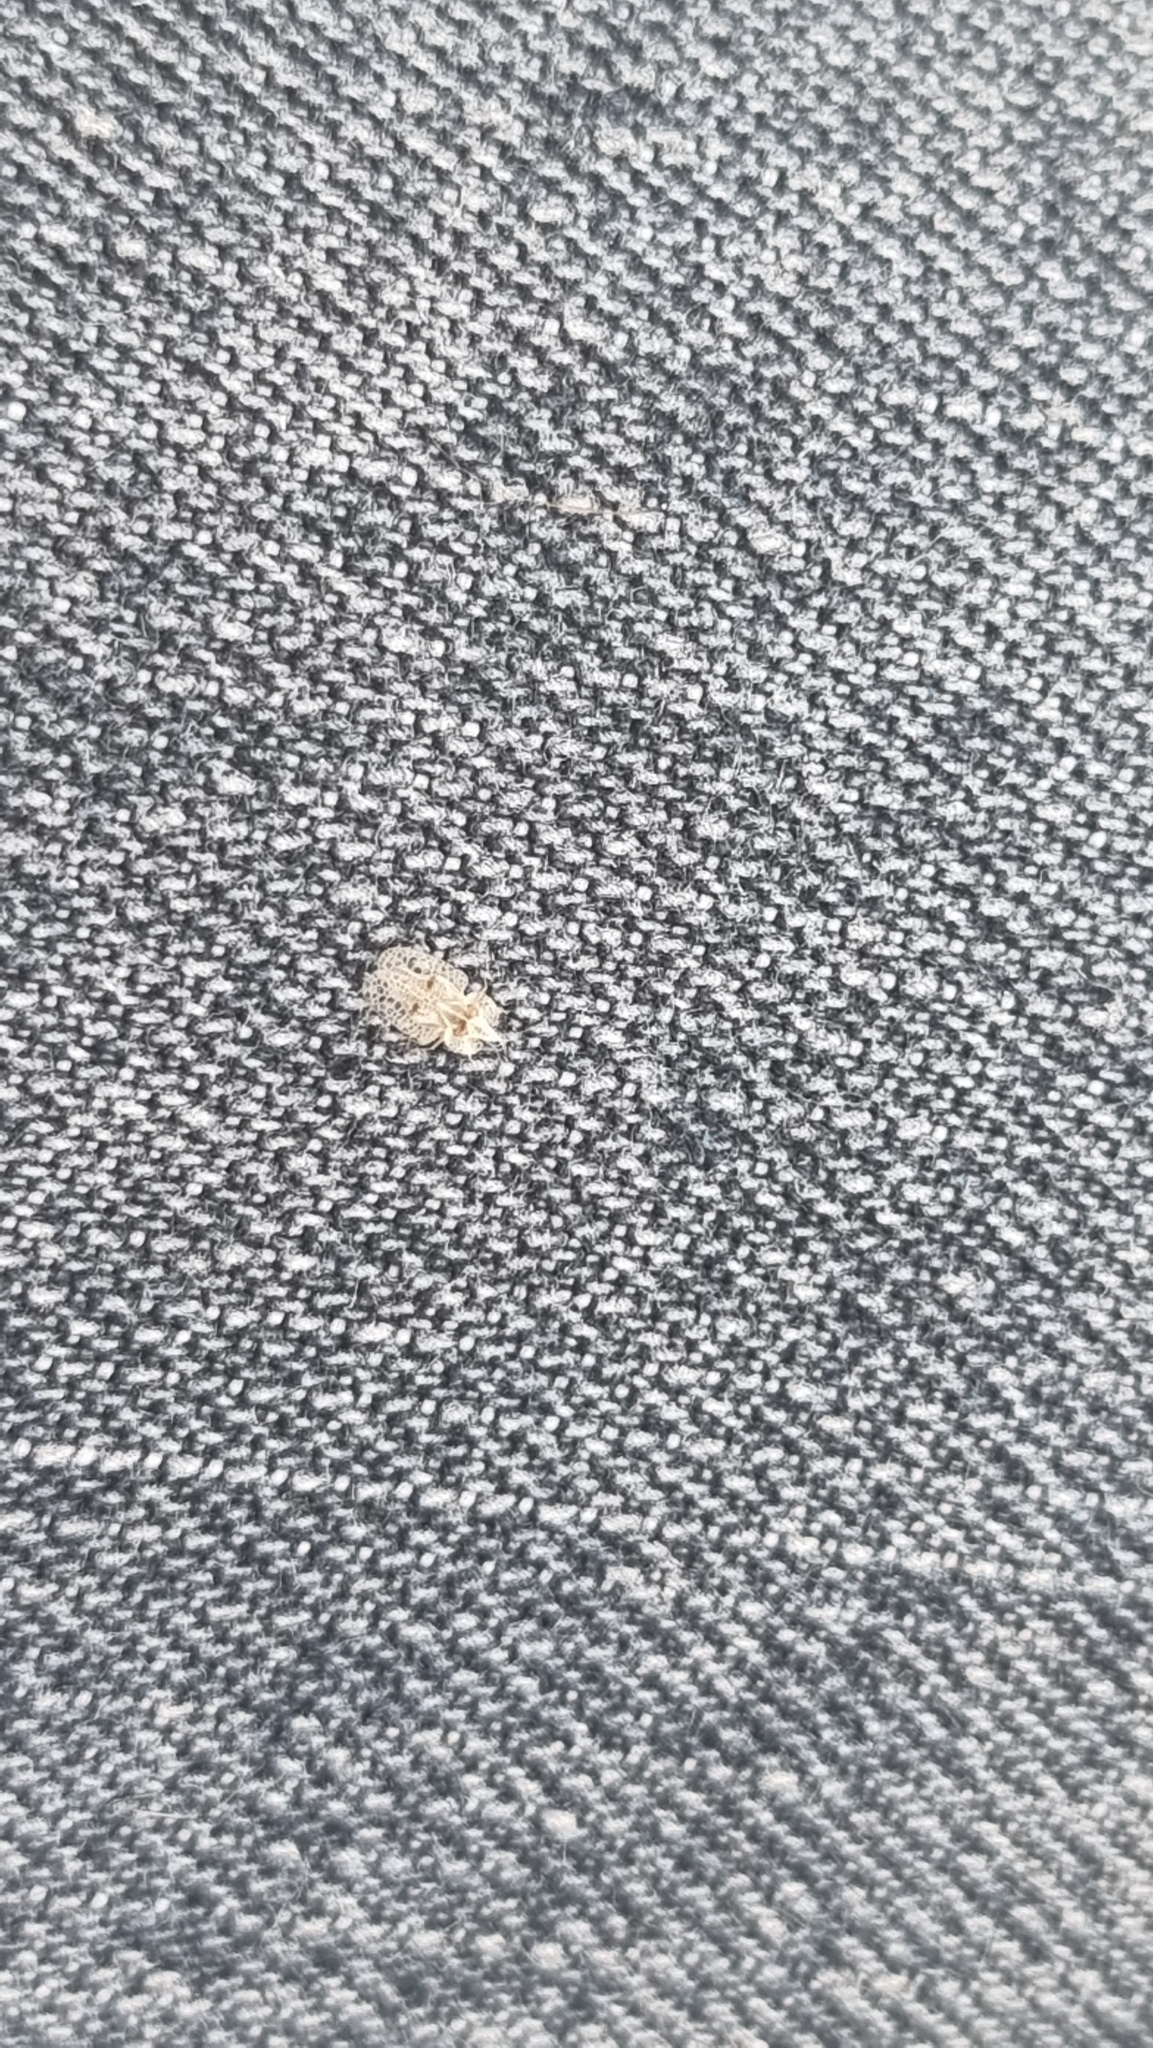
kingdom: Animalia
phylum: Arthropoda
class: Insecta
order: Hemiptera
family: Tingidae
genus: Corythucha
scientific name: Corythucha ciliata
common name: Sycamore lace bug
